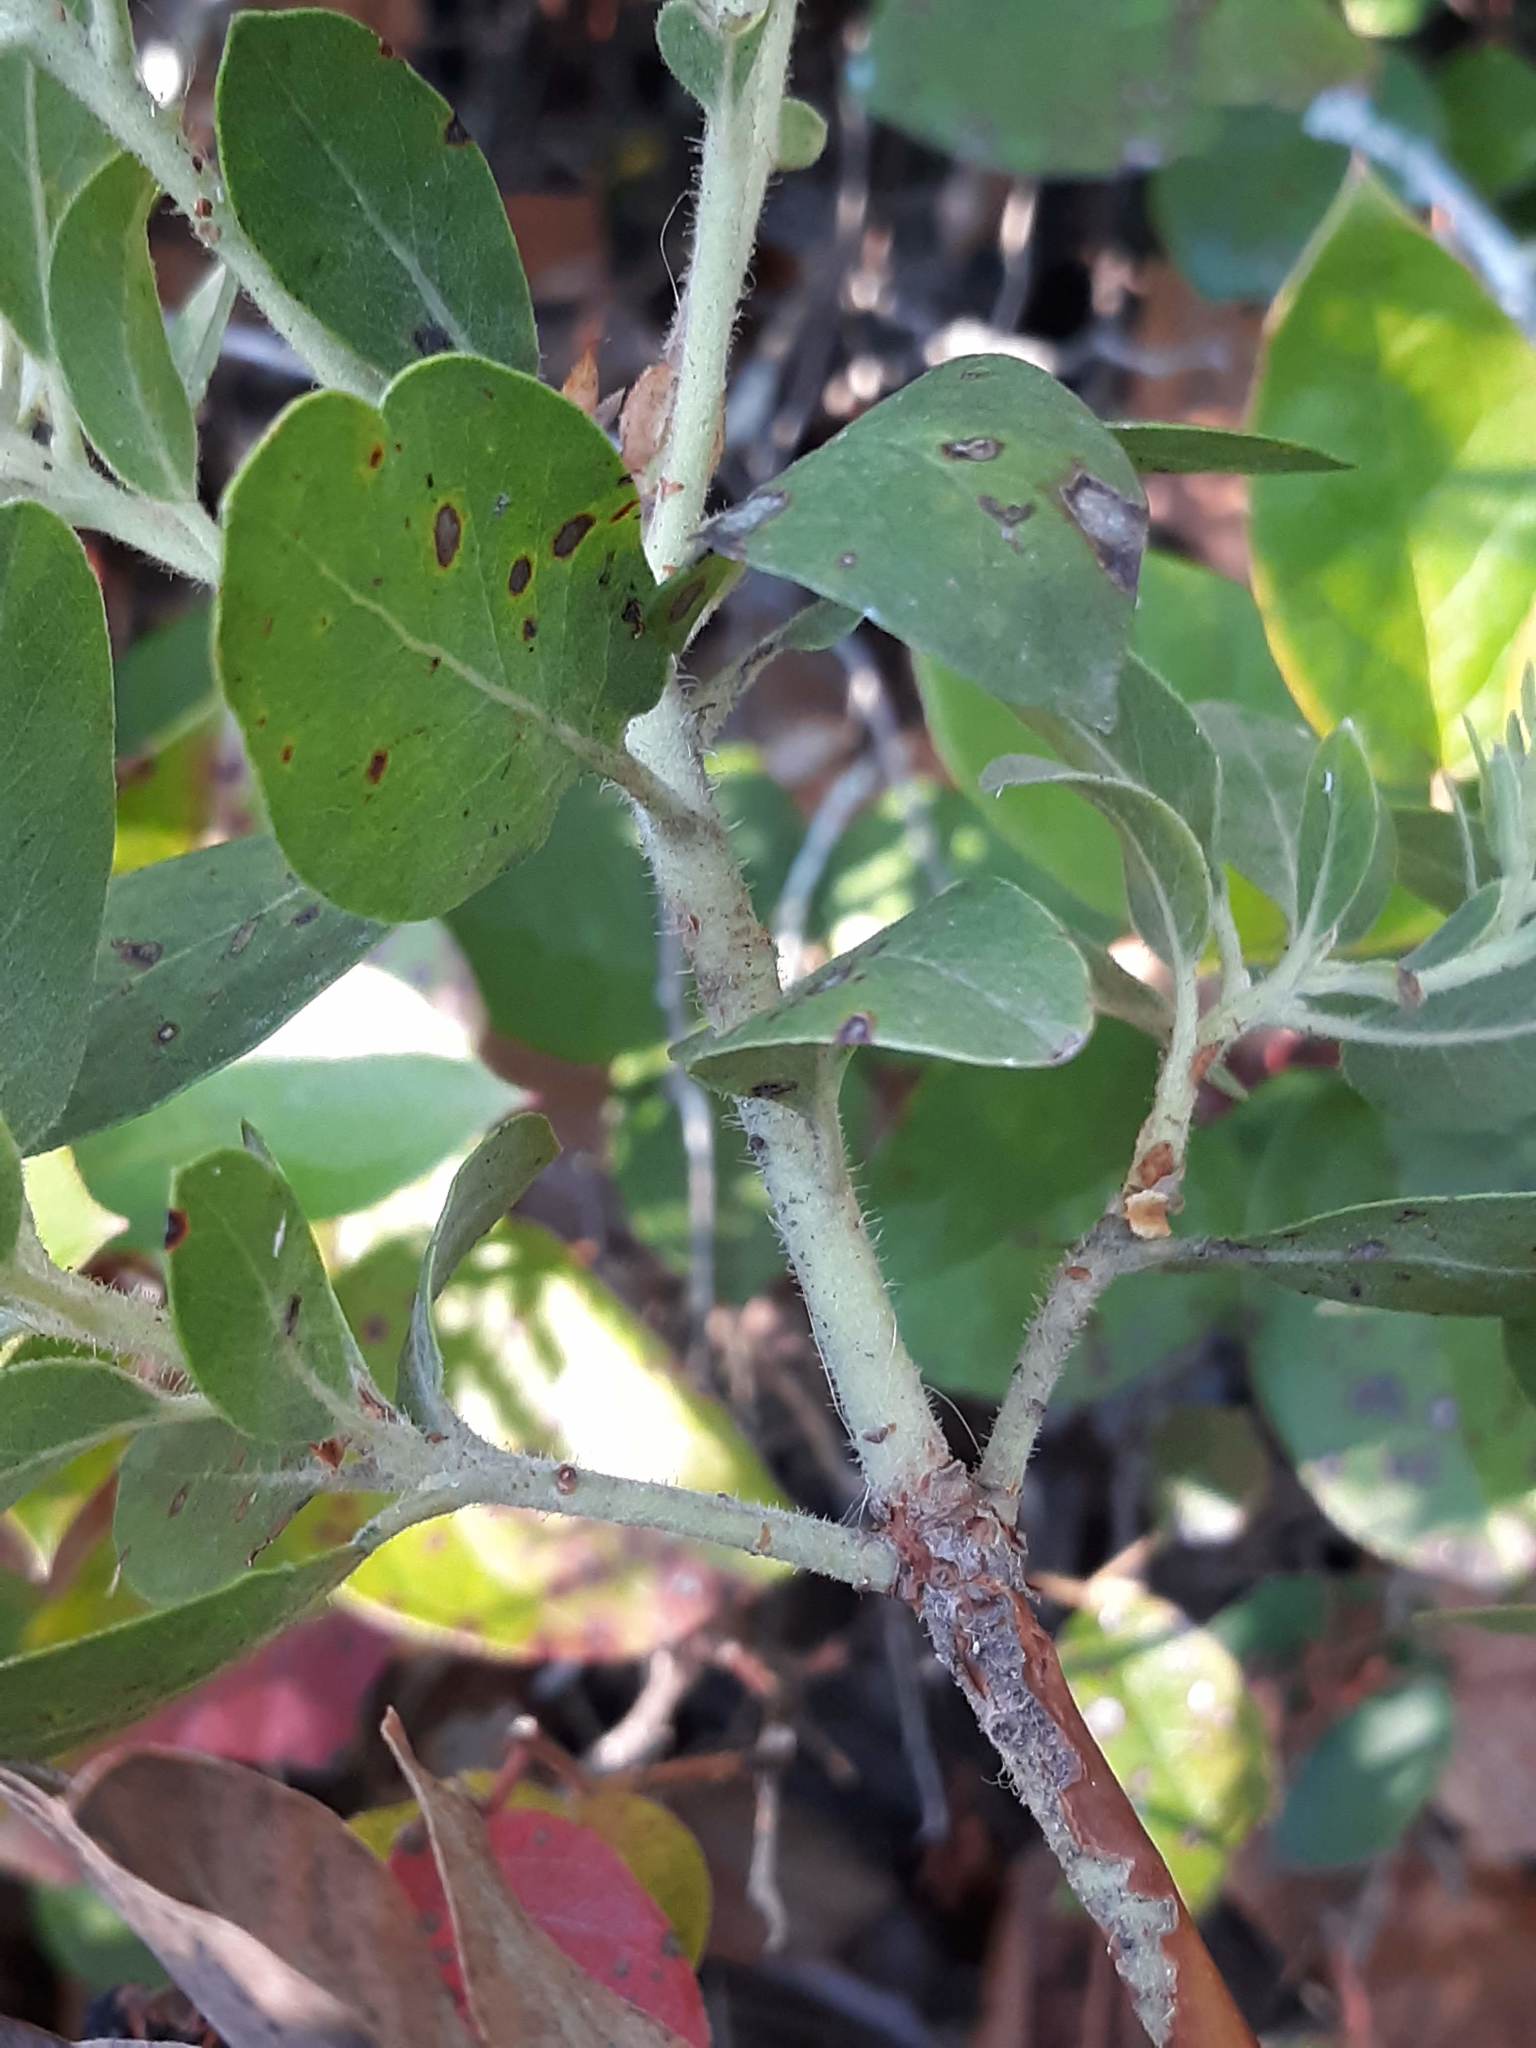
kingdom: Plantae
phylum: Tracheophyta
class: Magnoliopsida
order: Ericales
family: Ericaceae
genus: Arctostaphylos
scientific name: Arctostaphylos columbiana
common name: Bristly bearberry
